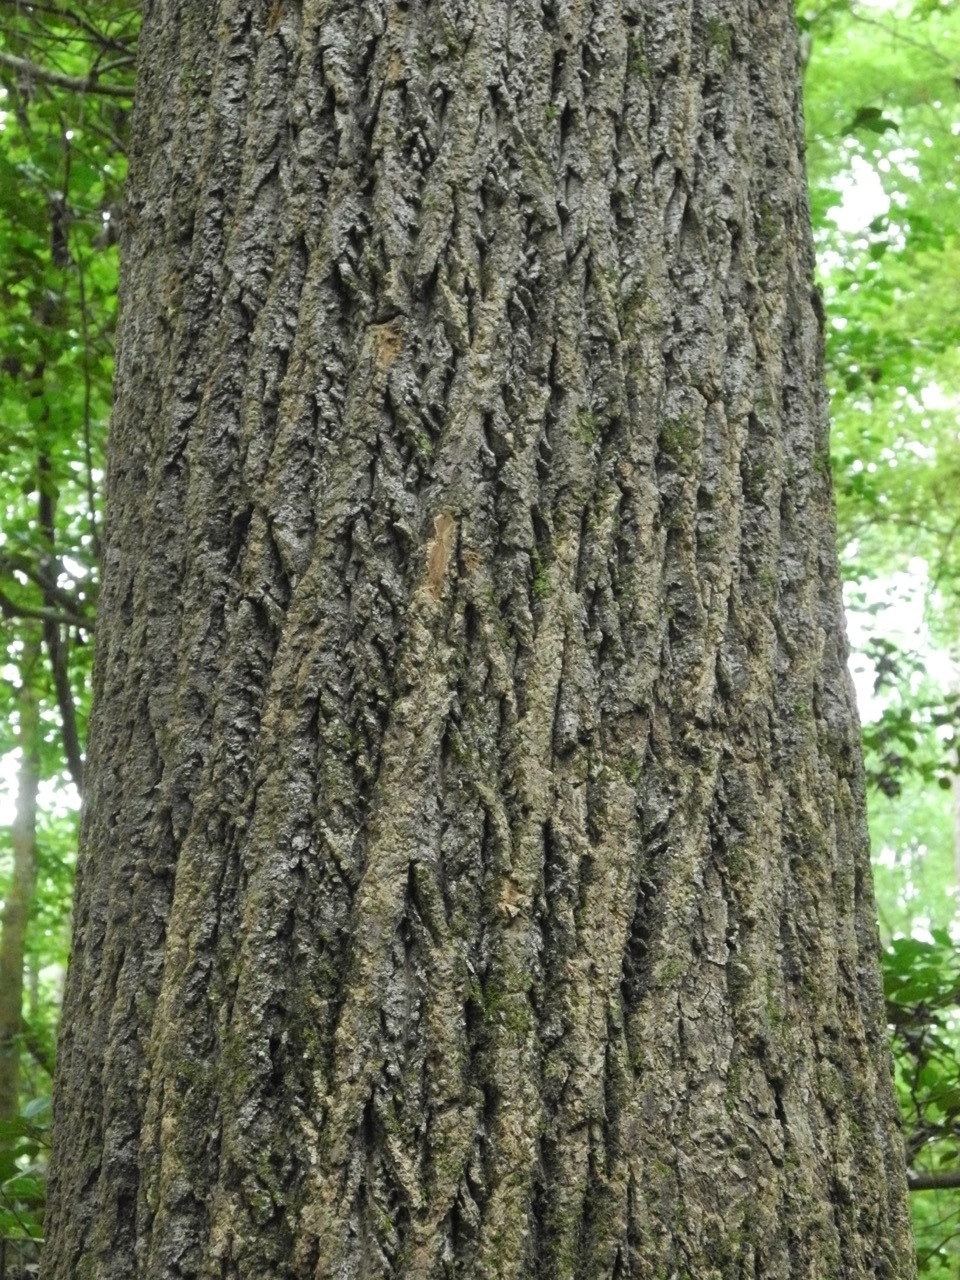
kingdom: Plantae
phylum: Tracheophyta
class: Magnoliopsida
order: Magnoliales
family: Magnoliaceae
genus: Liriodendron
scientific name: Liriodendron tulipifera
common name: Tulip tree
